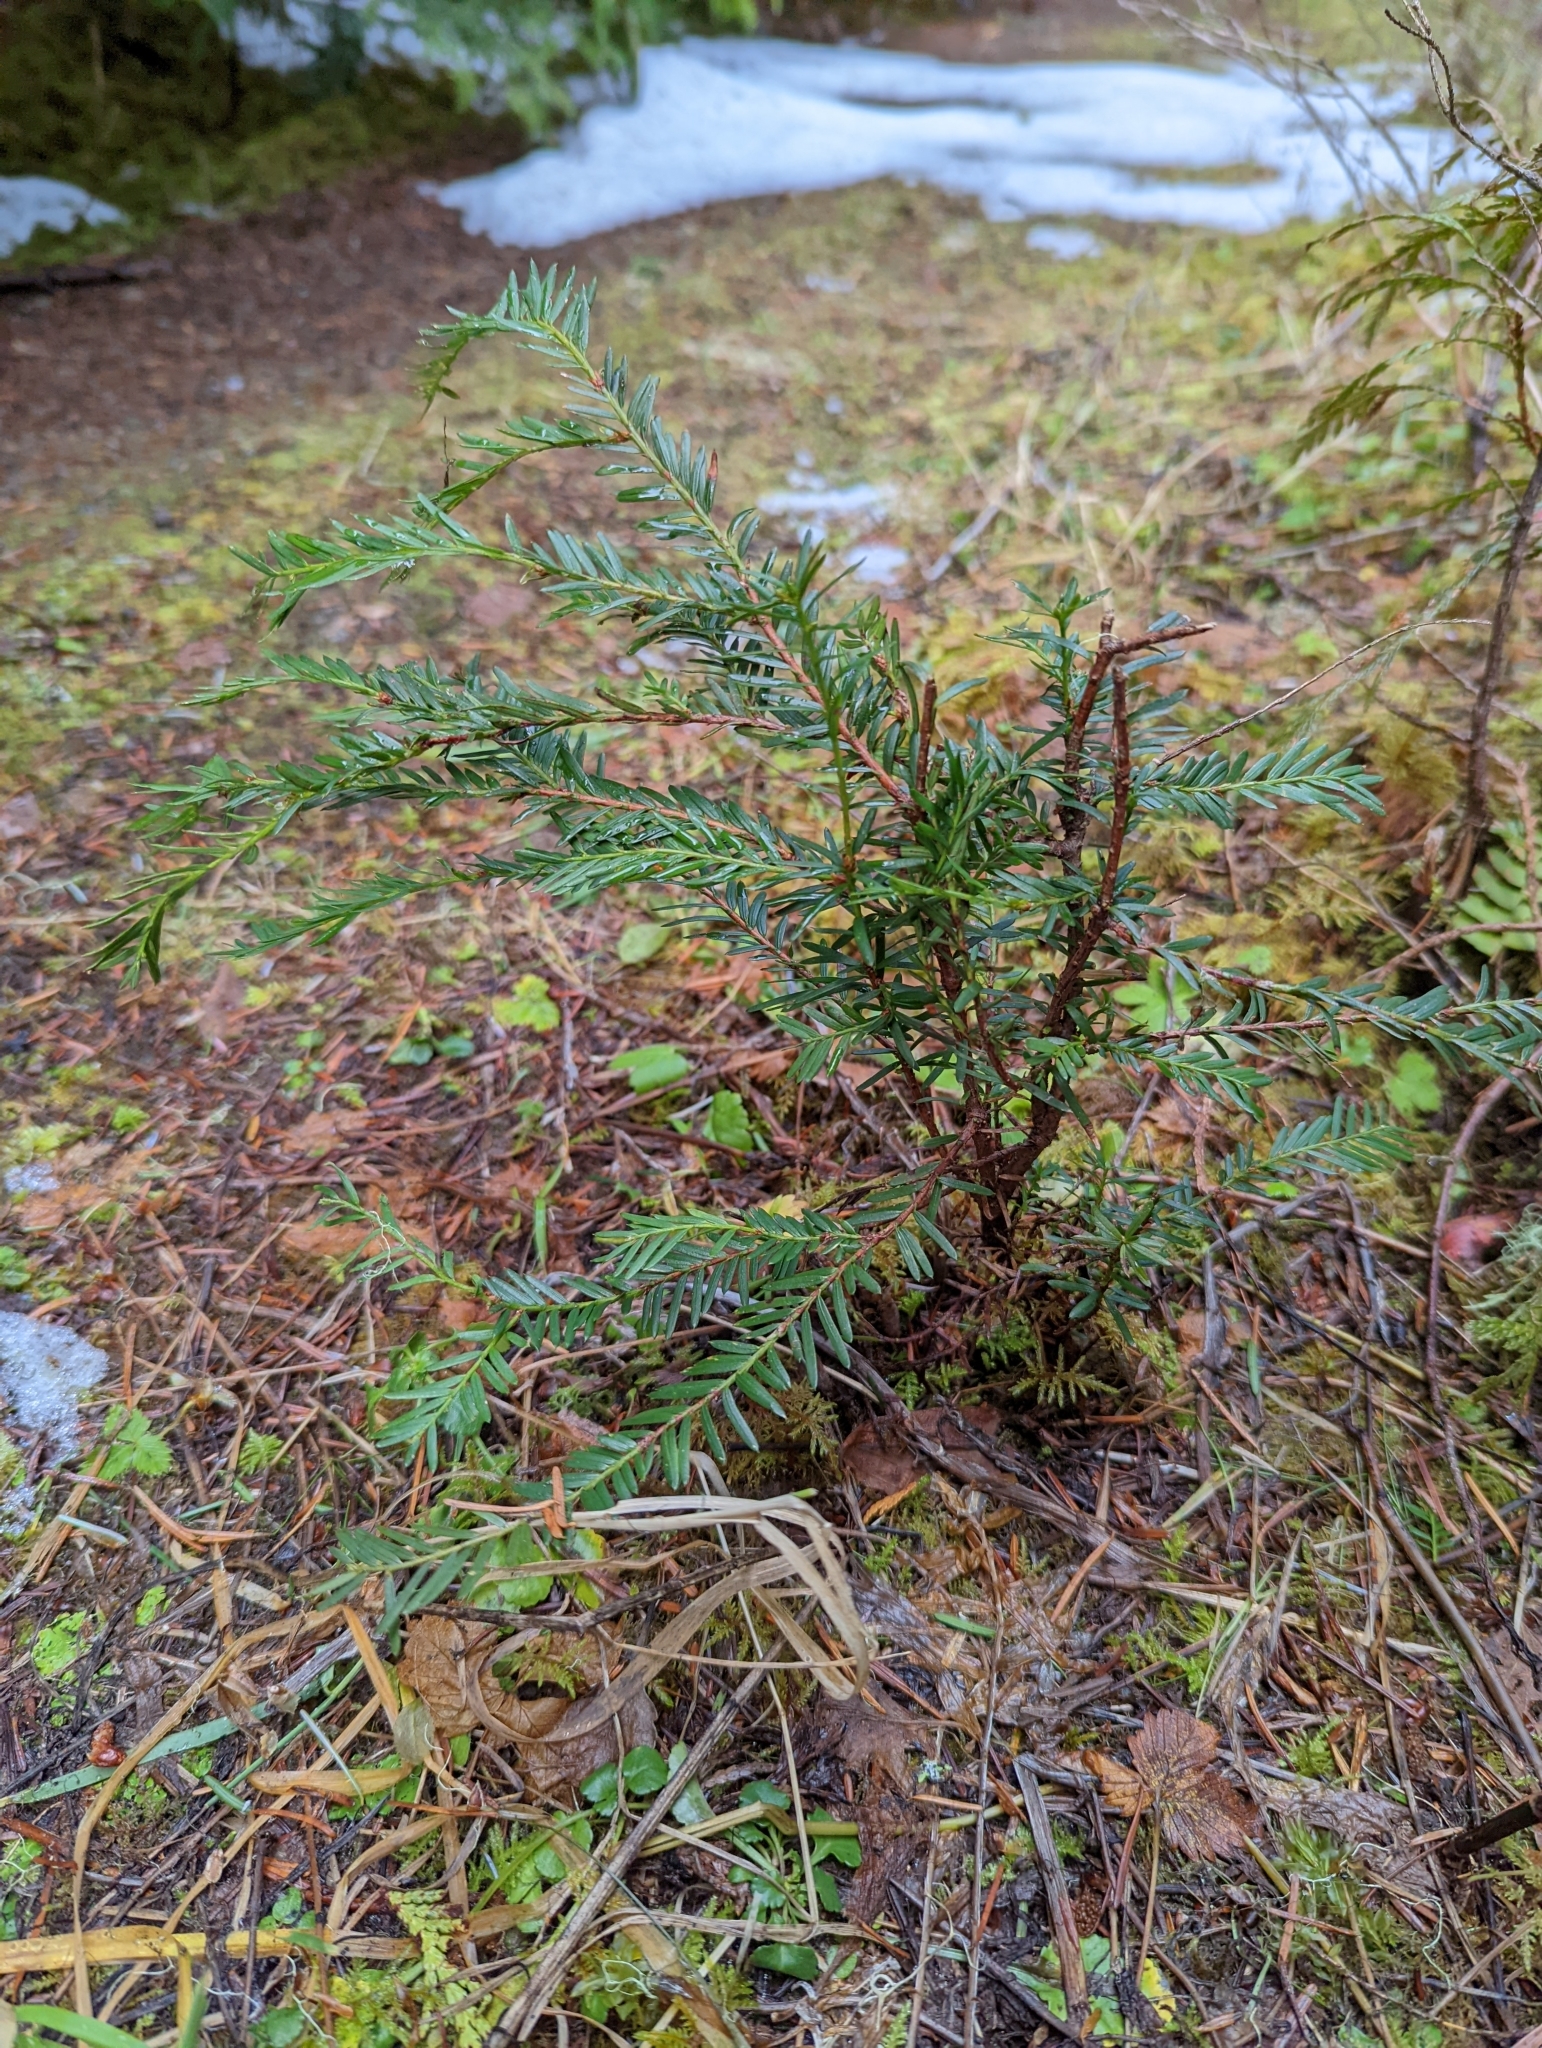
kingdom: Plantae
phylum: Tracheophyta
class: Pinopsida
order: Pinales
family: Taxaceae
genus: Taxus
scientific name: Taxus brevifolia
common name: Pacific yew
